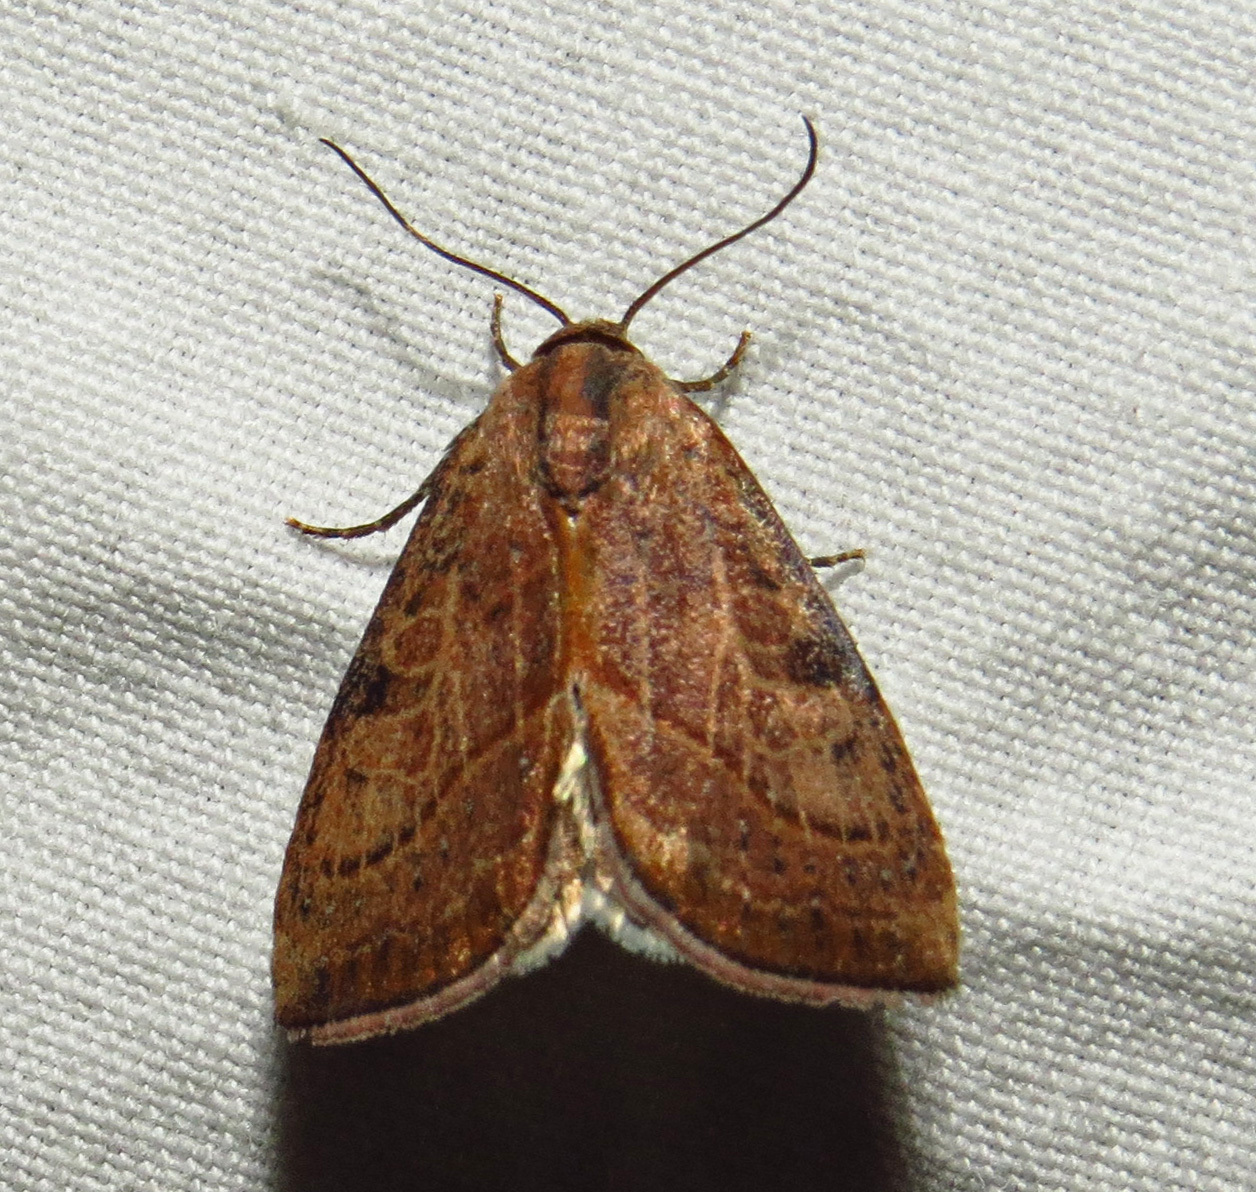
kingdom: Animalia
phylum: Arthropoda
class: Insecta
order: Lepidoptera
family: Noctuidae
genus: Galgula
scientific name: Galgula partita
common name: Wedgeling
